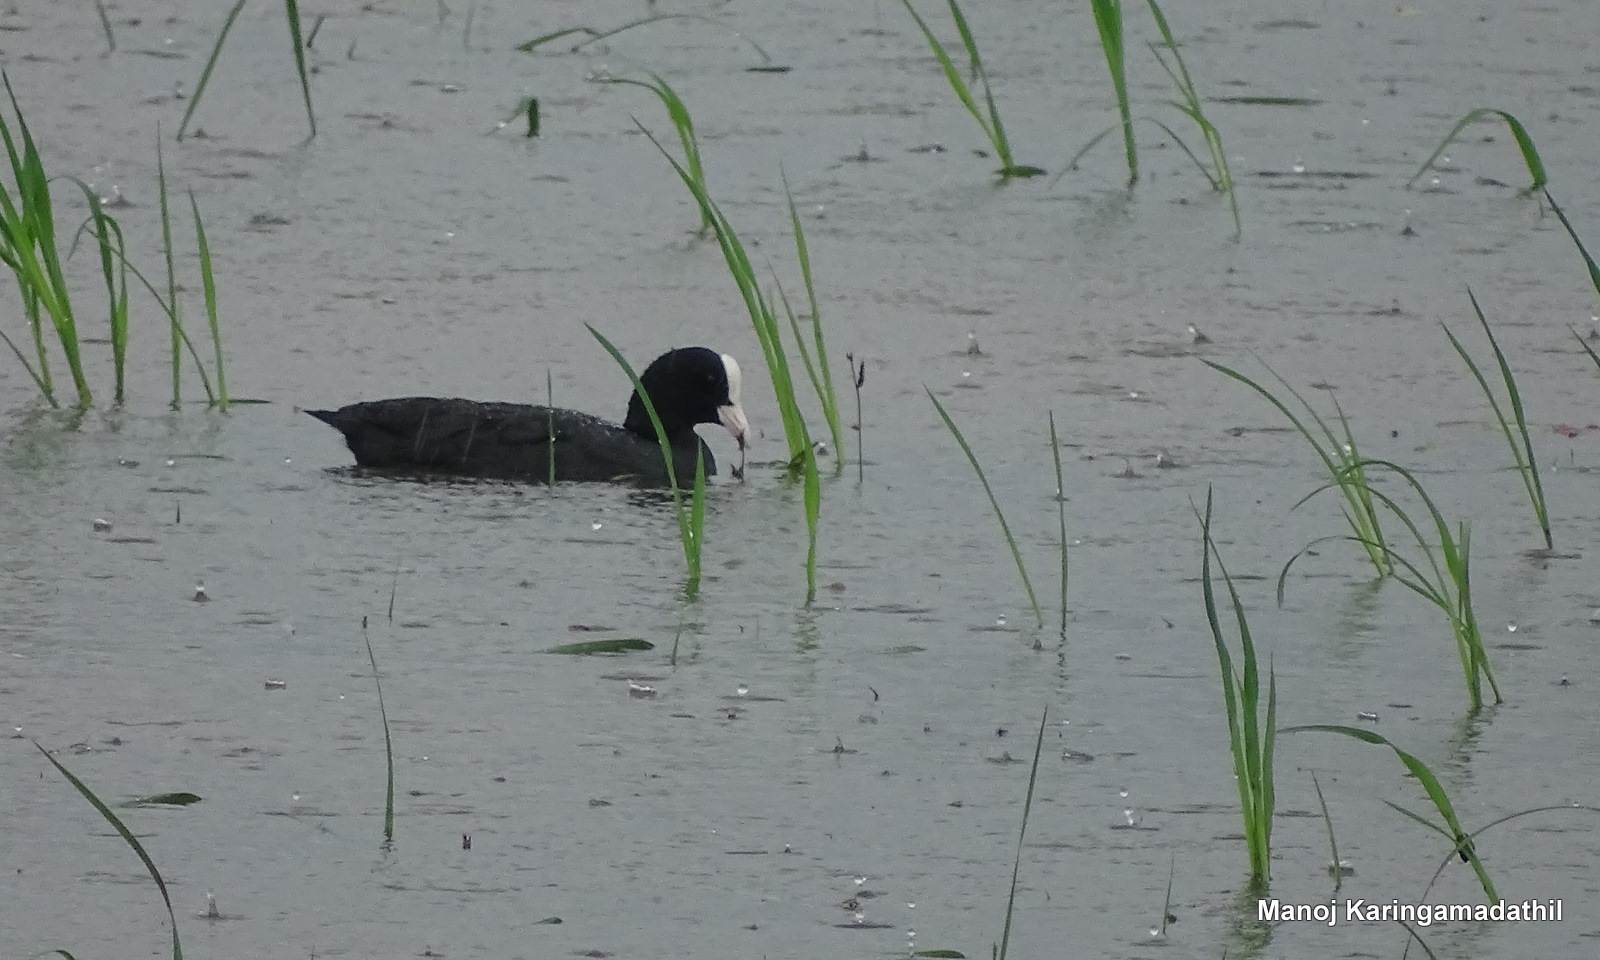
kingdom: Animalia
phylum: Chordata
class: Aves
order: Gruiformes
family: Rallidae
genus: Fulica
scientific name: Fulica atra
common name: Eurasian coot
